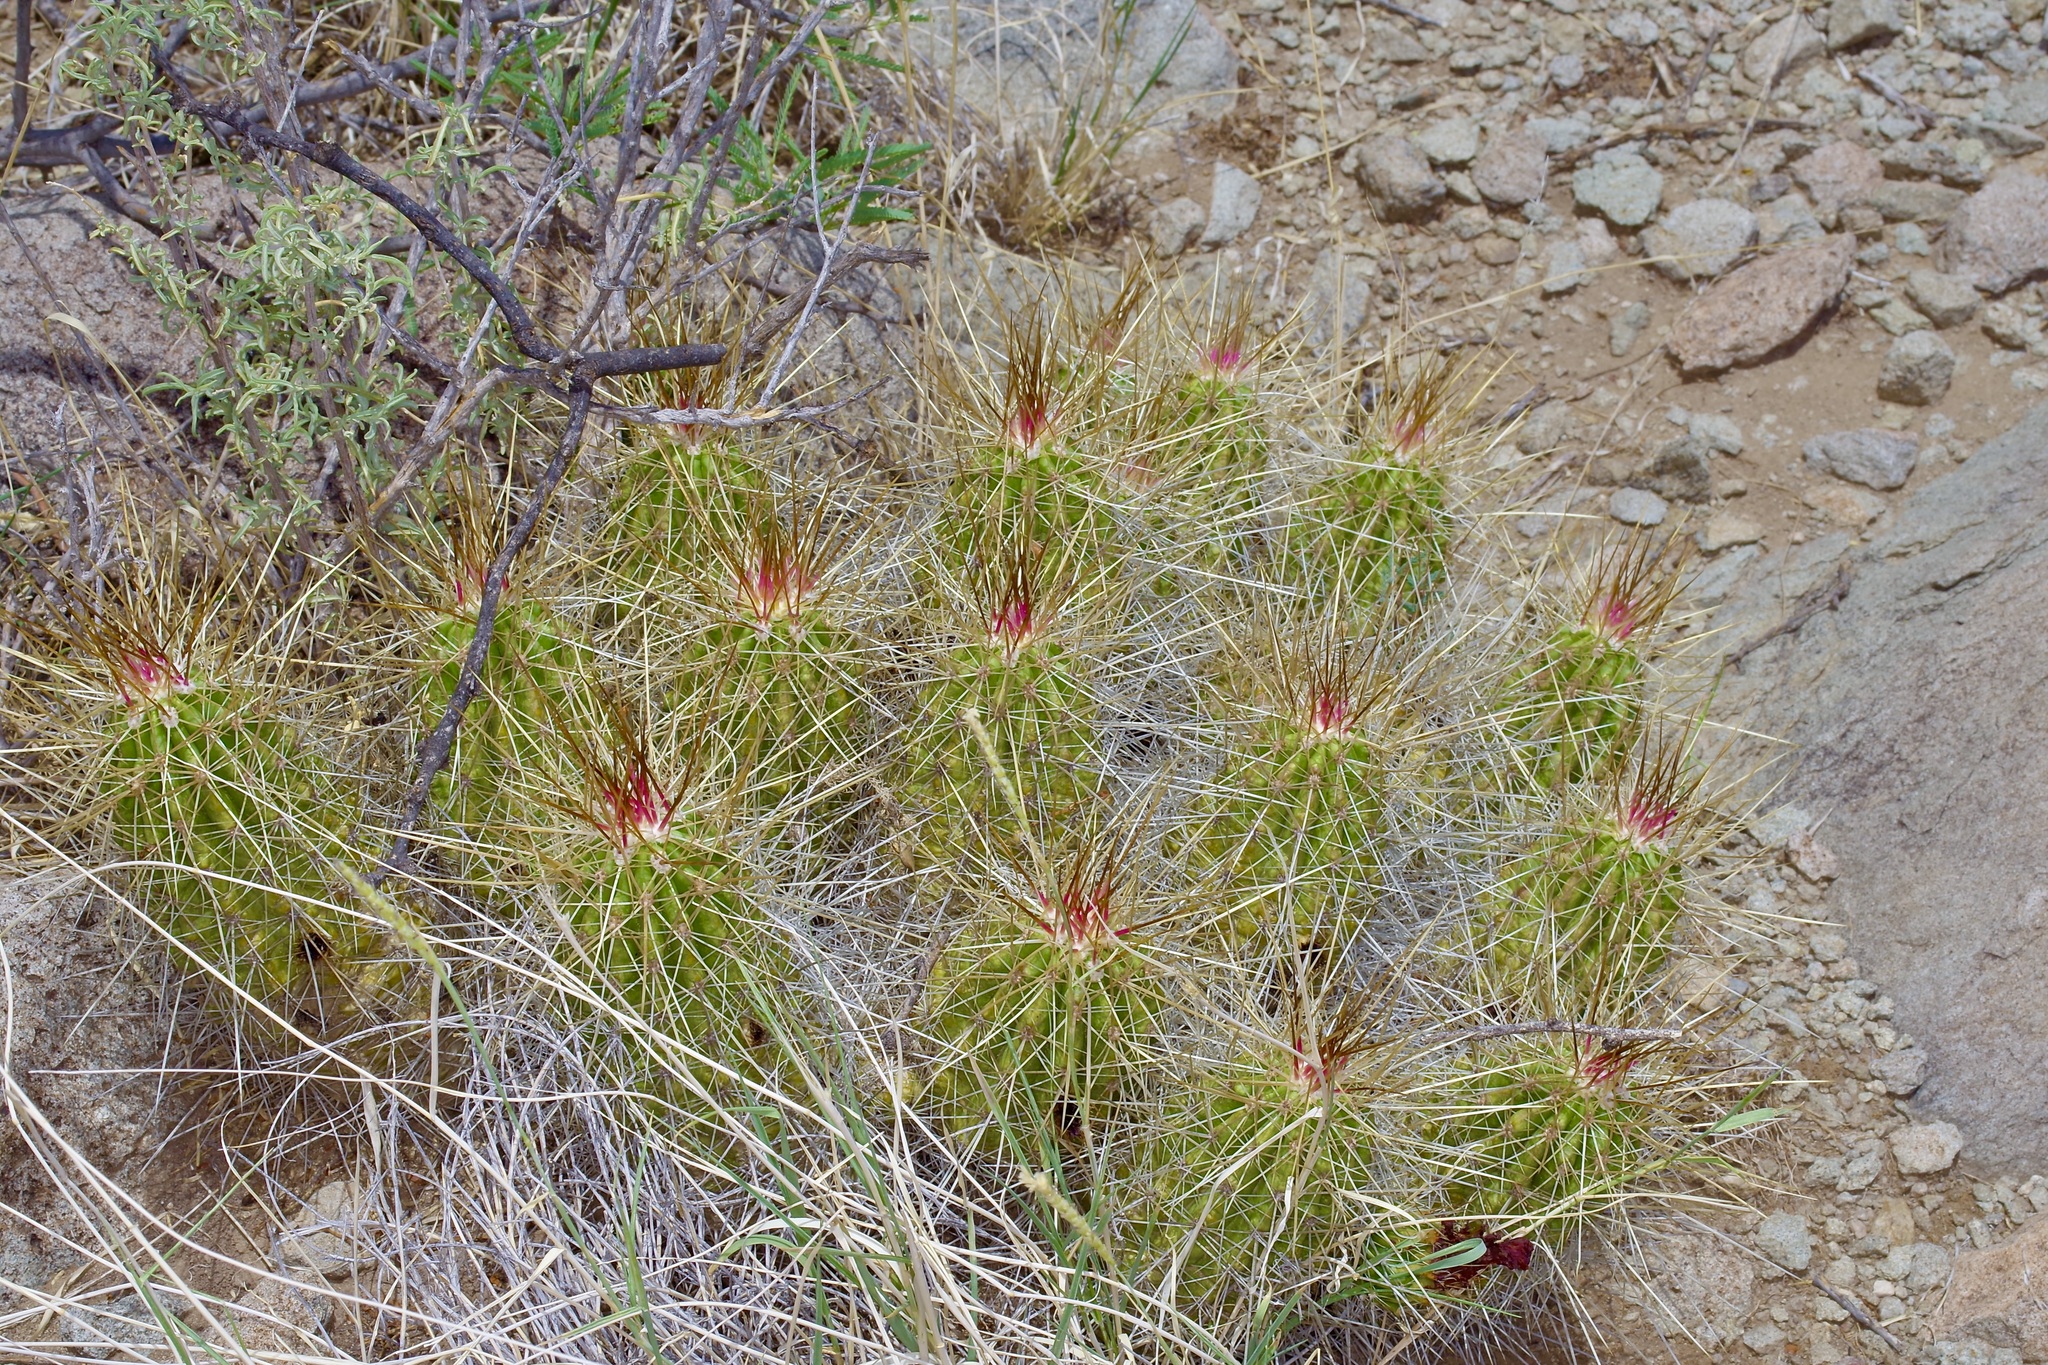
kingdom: Plantae
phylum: Tracheophyta
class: Magnoliopsida
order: Caryophyllales
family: Cactaceae
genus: Echinocereus
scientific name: Echinocereus stramineus
